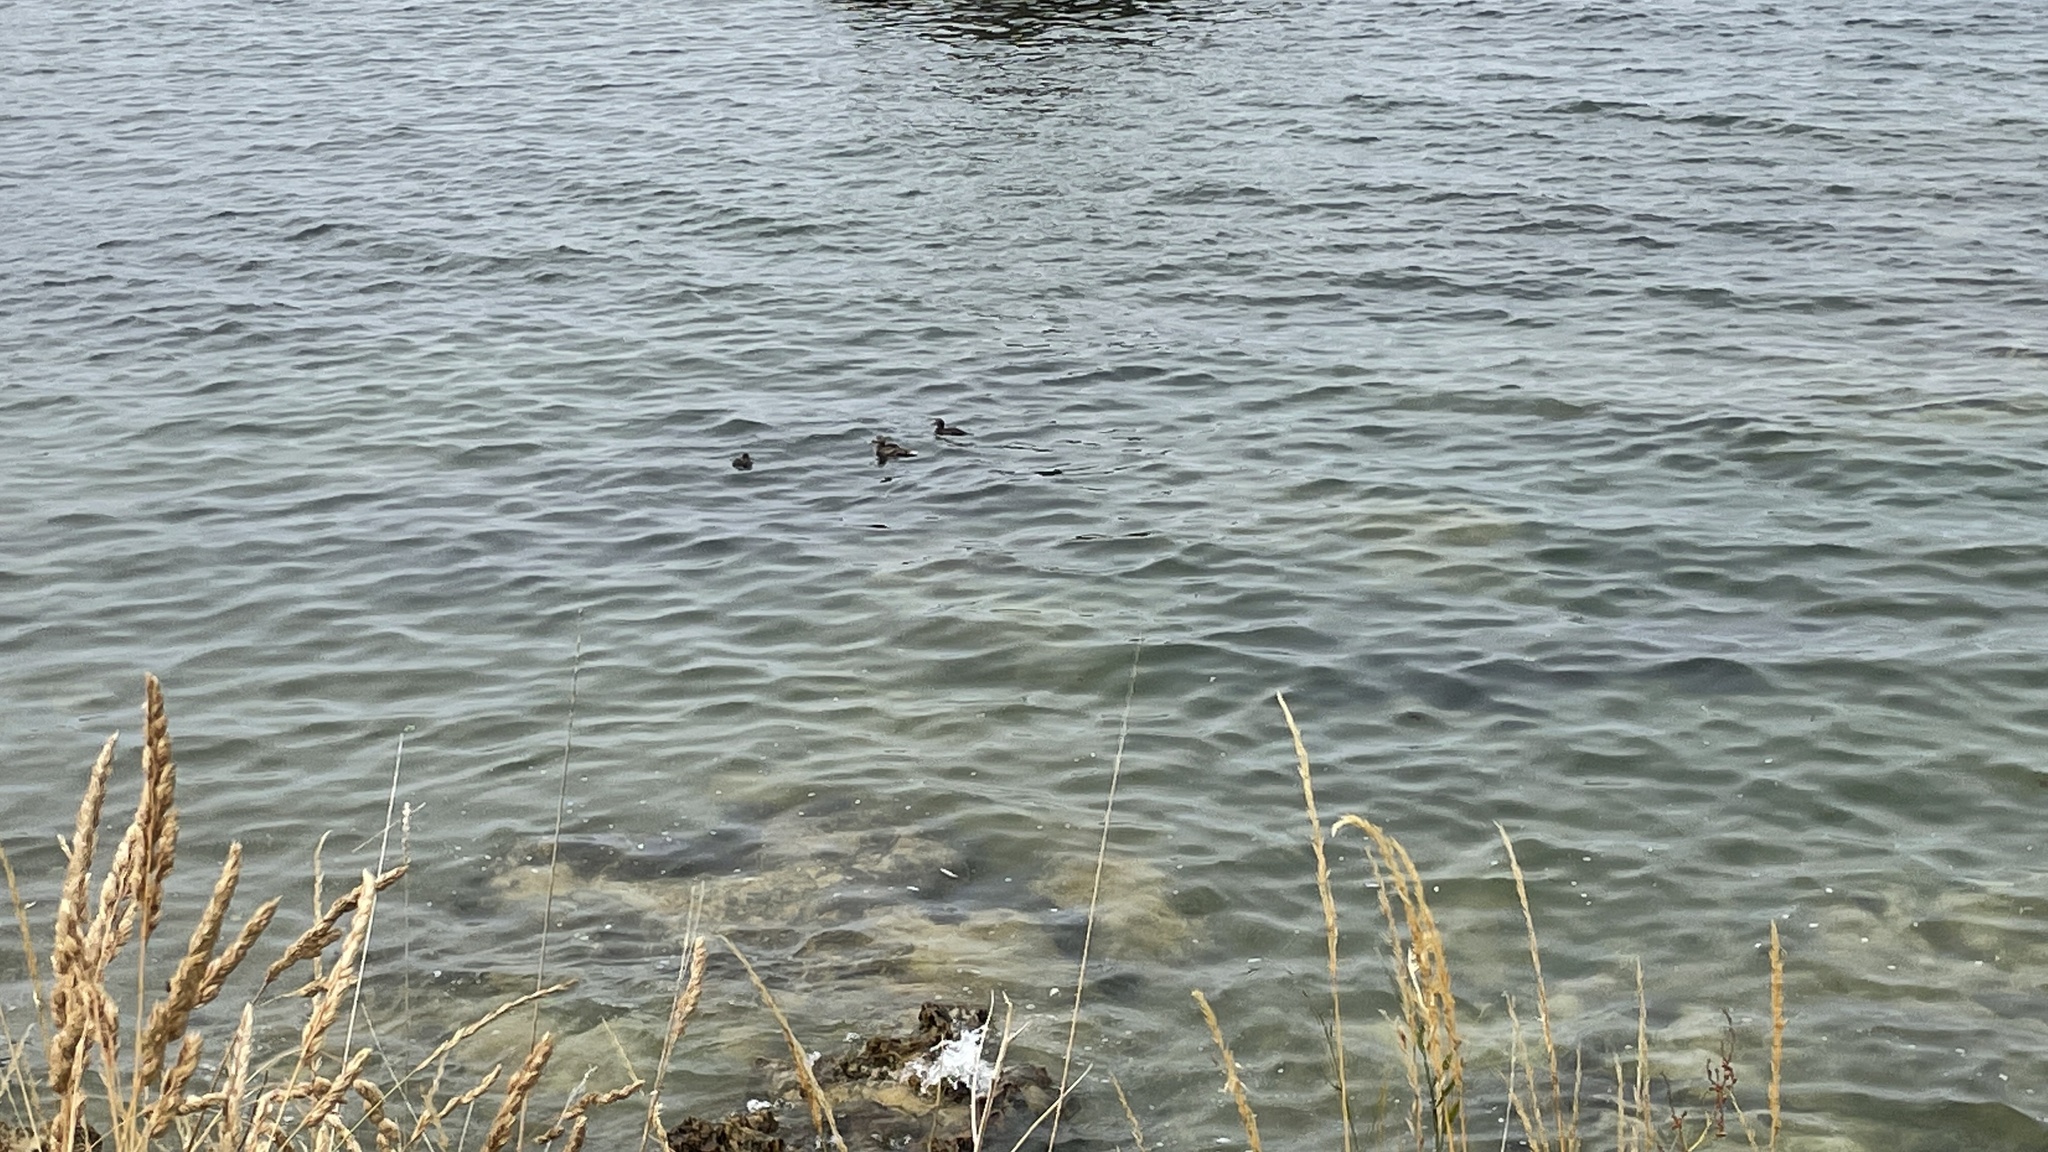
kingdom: Animalia
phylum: Chordata
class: Aves
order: Anseriformes
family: Anatidae
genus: Somateria
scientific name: Somateria mollissima
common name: Common eider
